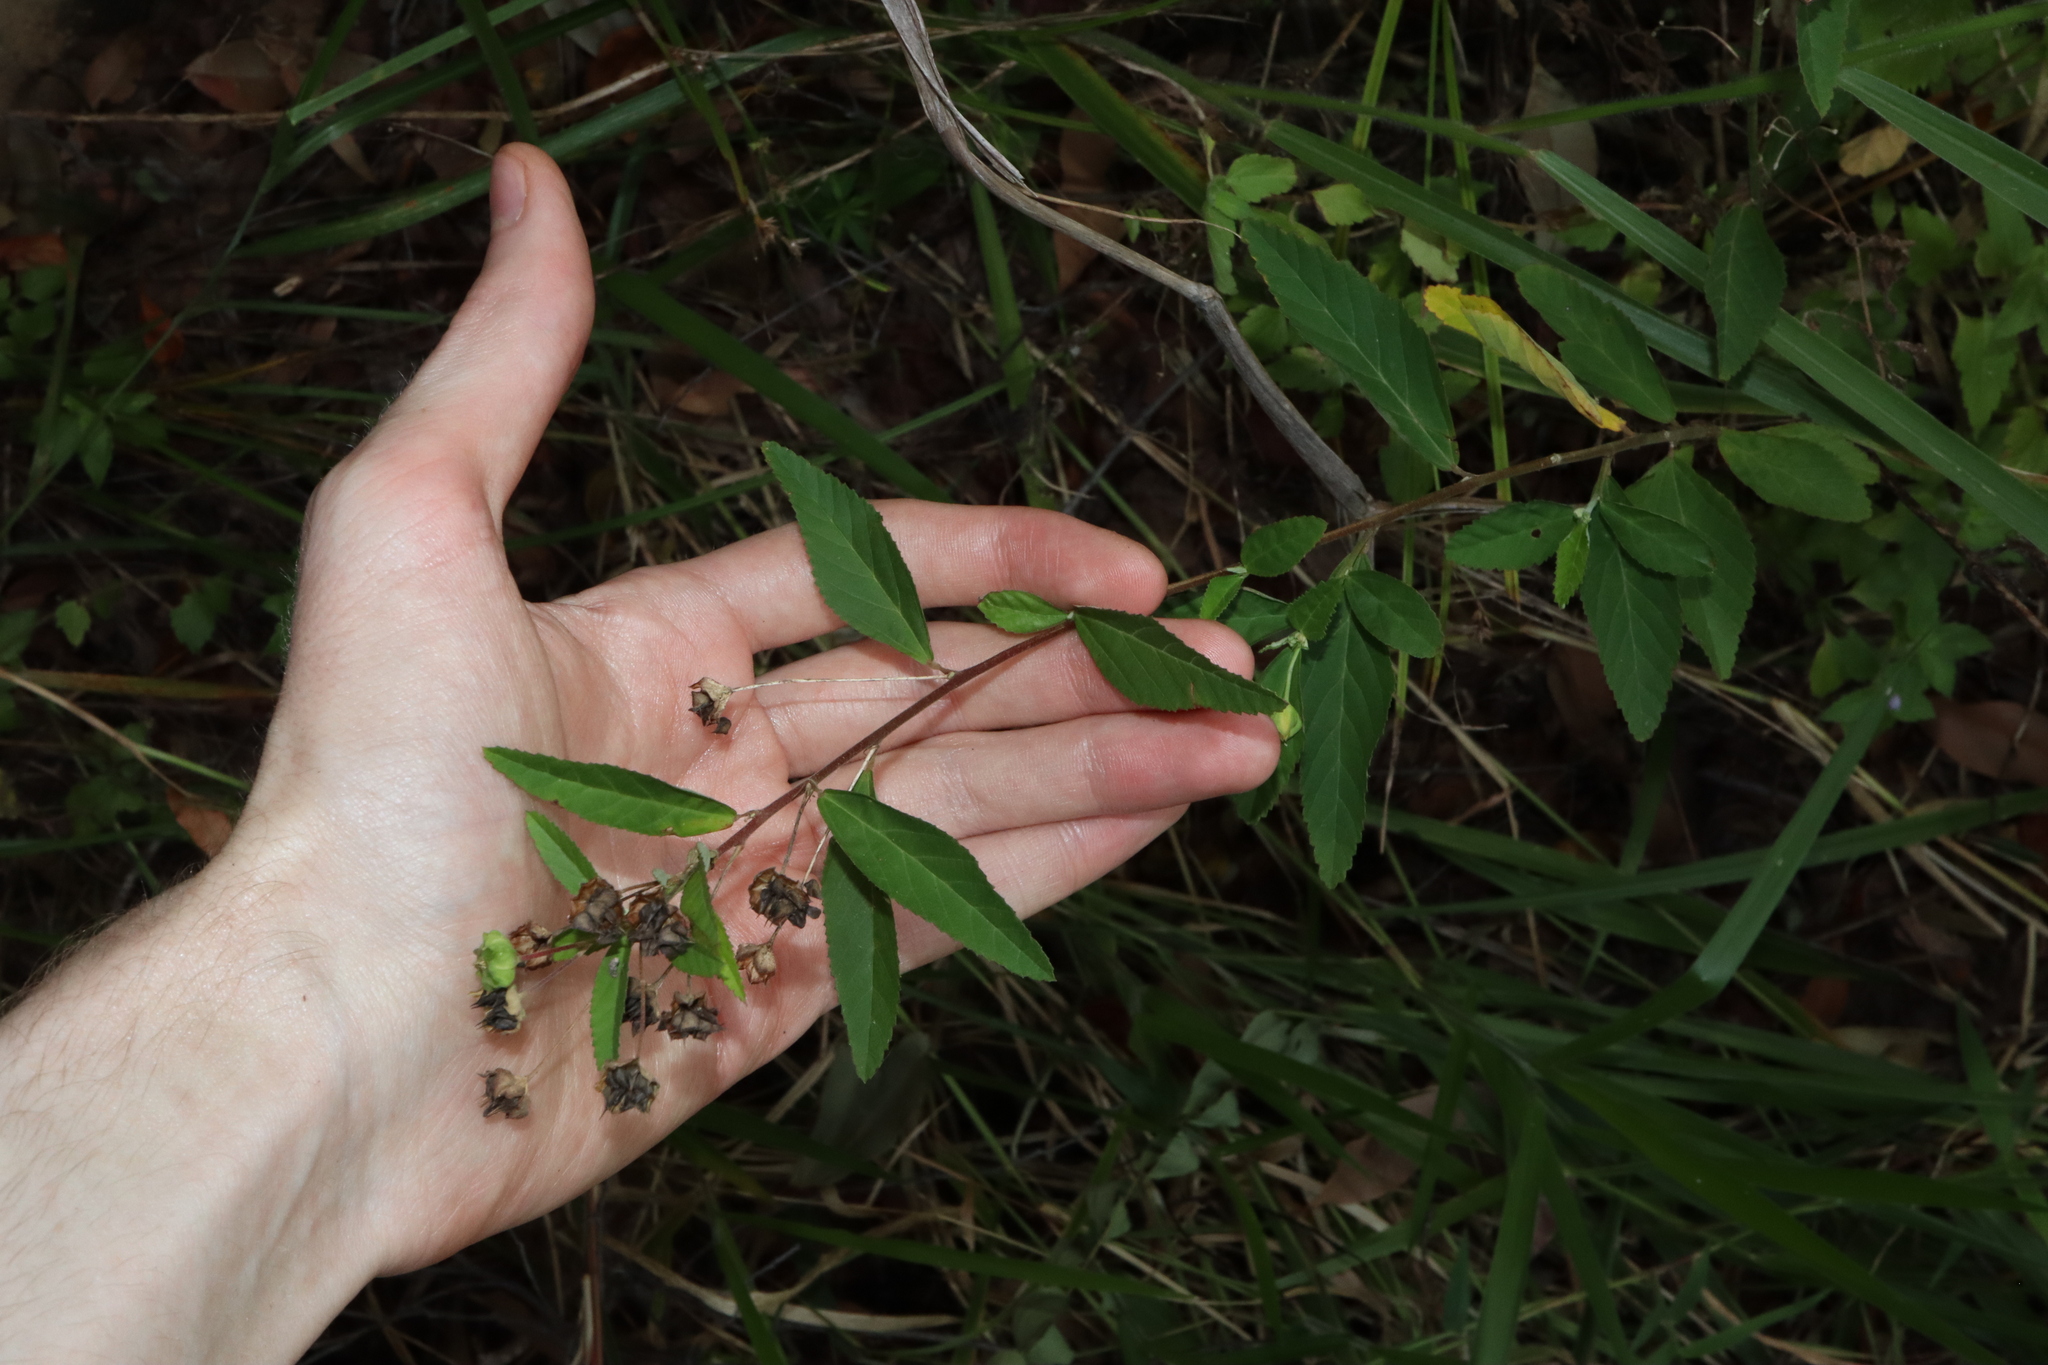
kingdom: Plantae
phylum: Tracheophyta
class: Magnoliopsida
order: Malvales
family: Malvaceae
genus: Sida
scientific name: Sida rhombifolia
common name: Queensland-hemp
